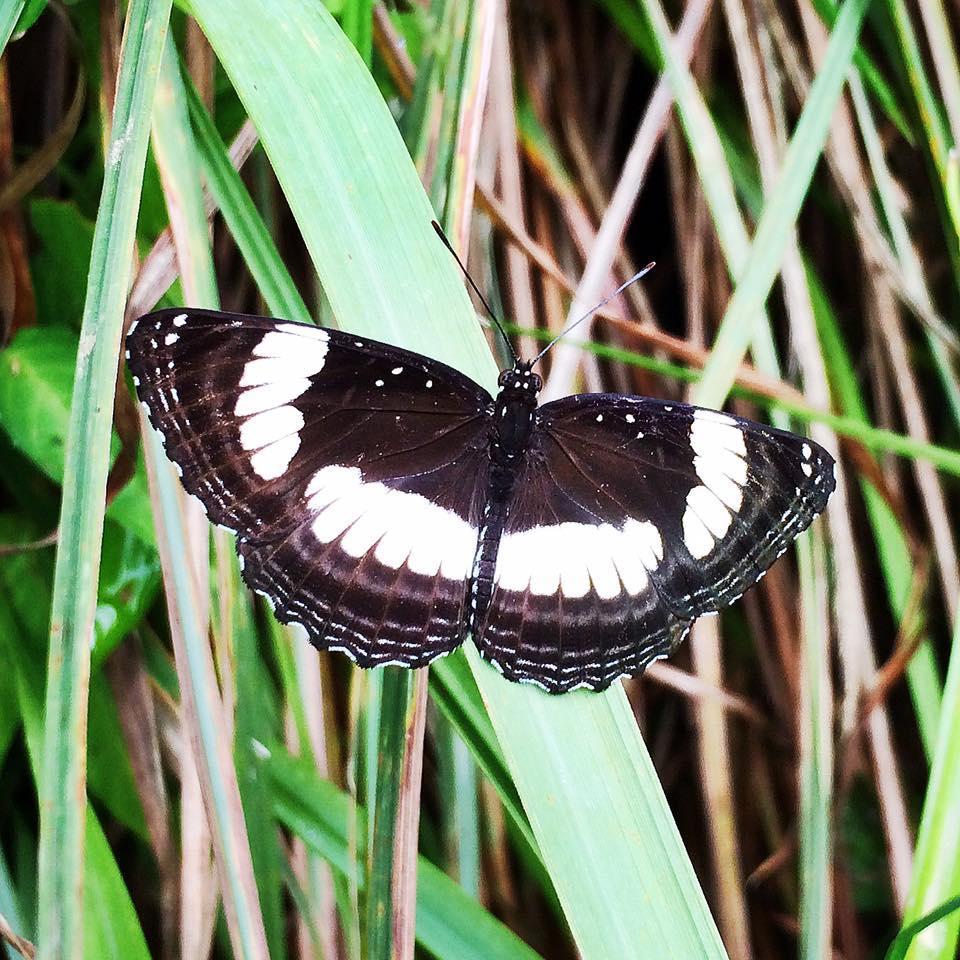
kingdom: Animalia
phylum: Arthropoda
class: Insecta
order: Lepidoptera
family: Nymphalidae
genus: Neptis
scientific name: Neptis laeta
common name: Common barred sailor
